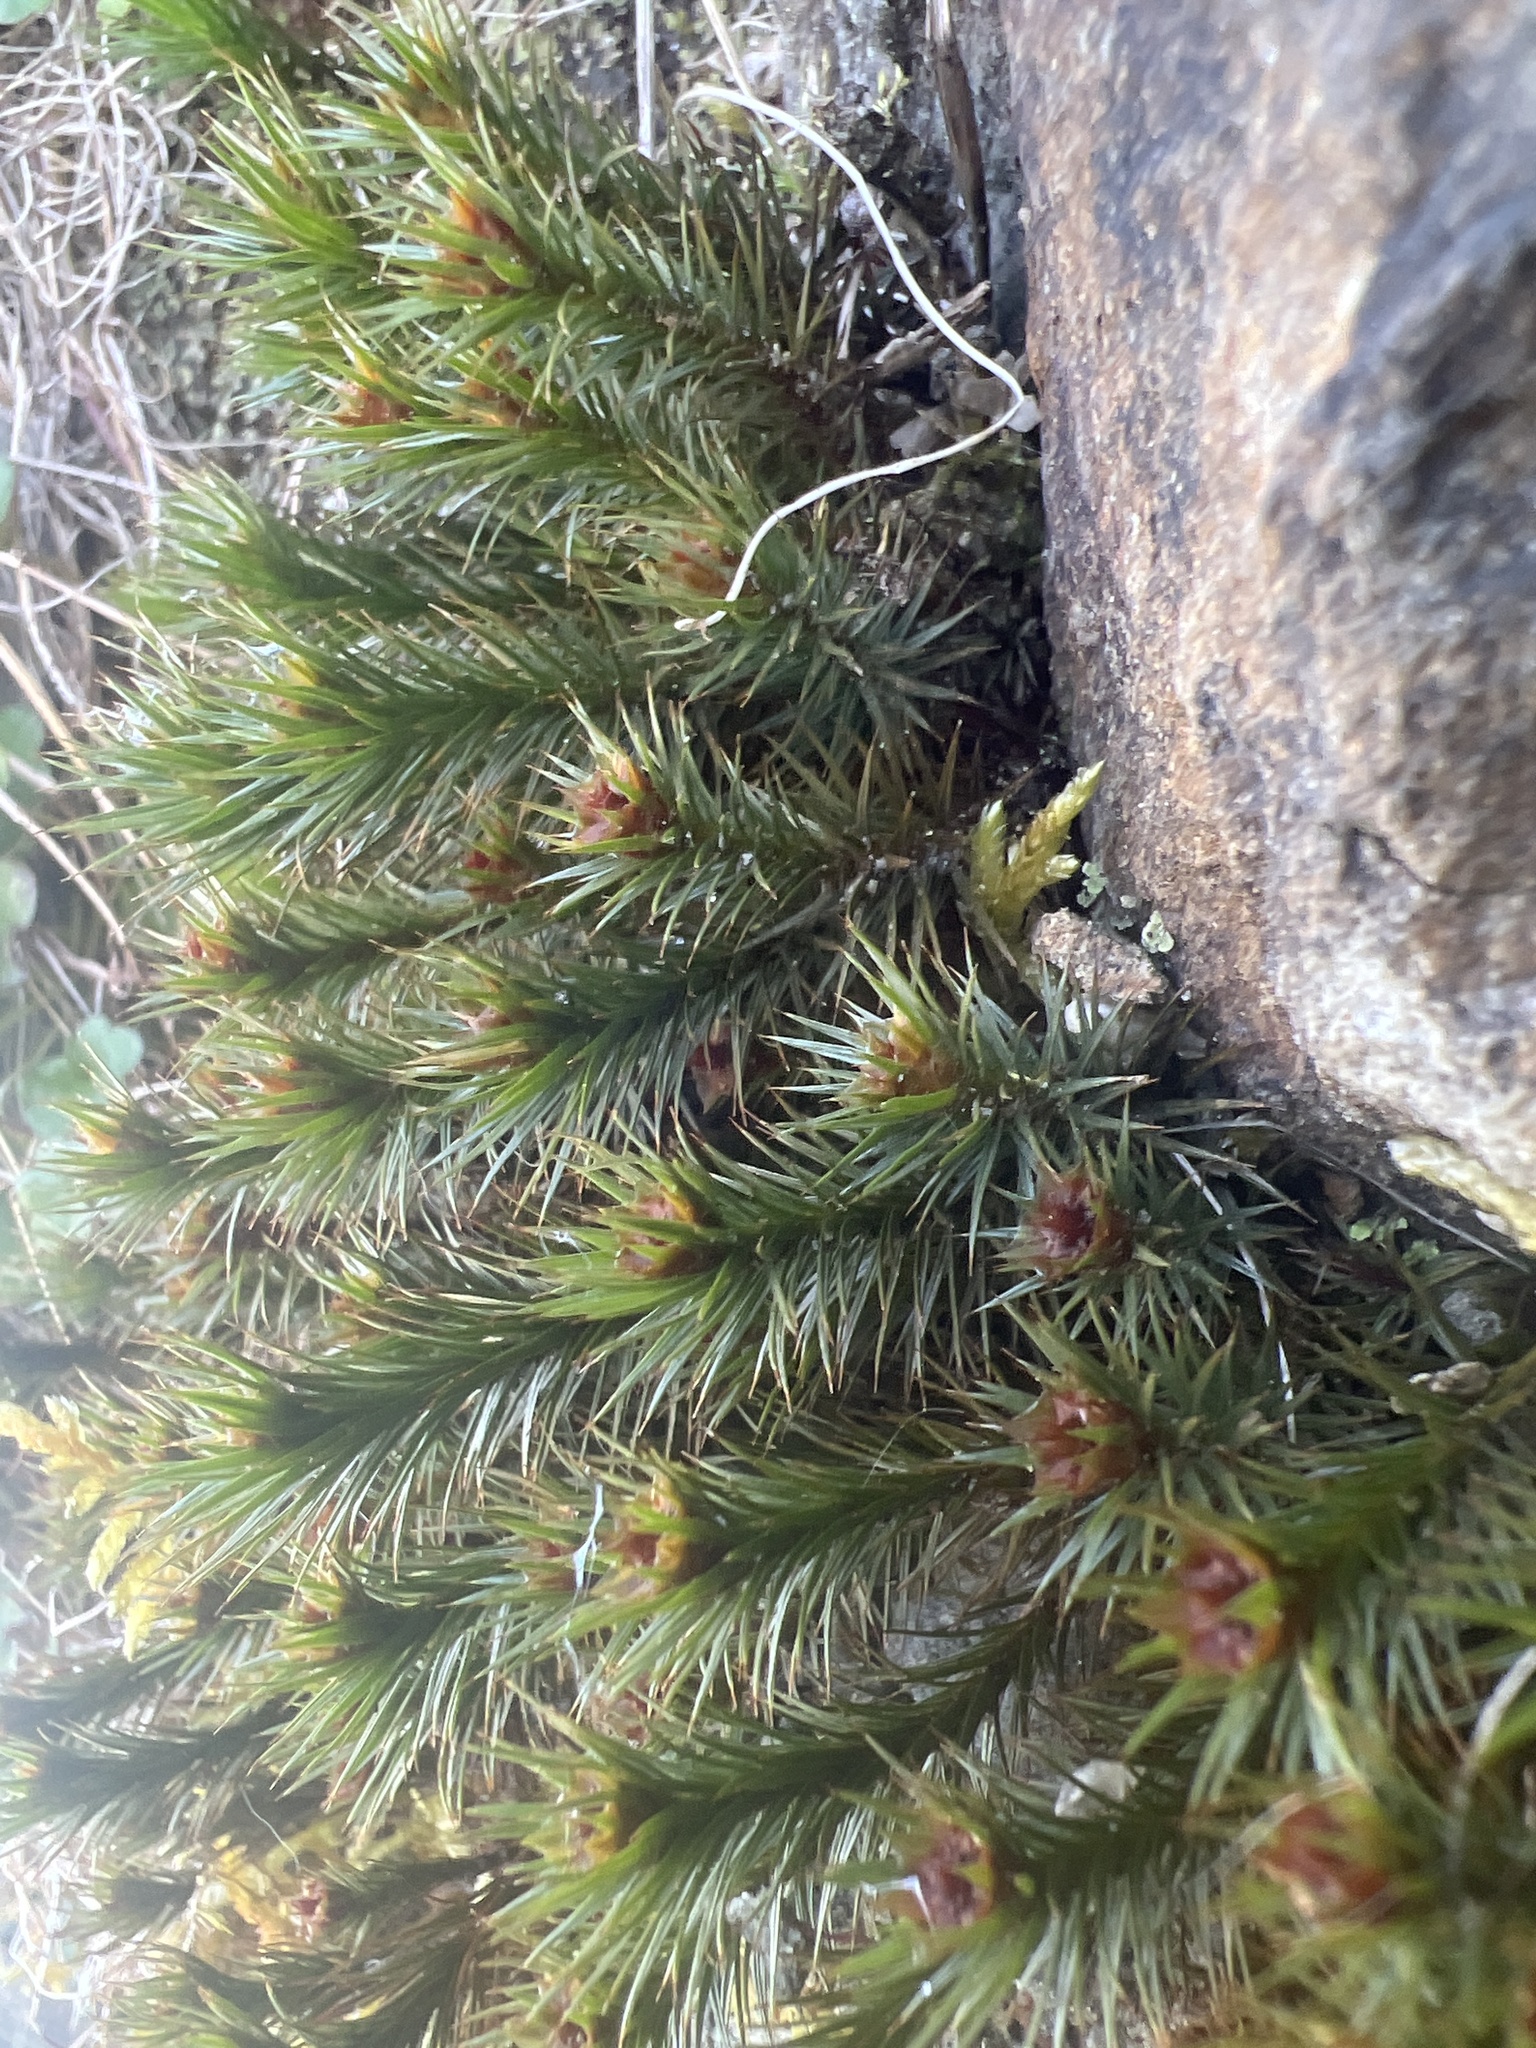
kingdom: Plantae
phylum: Bryophyta
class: Polytrichopsida
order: Polytrichales
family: Polytrichaceae
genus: Polytrichum
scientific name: Polytrichum juniperinum
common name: Juniper haircap moss
